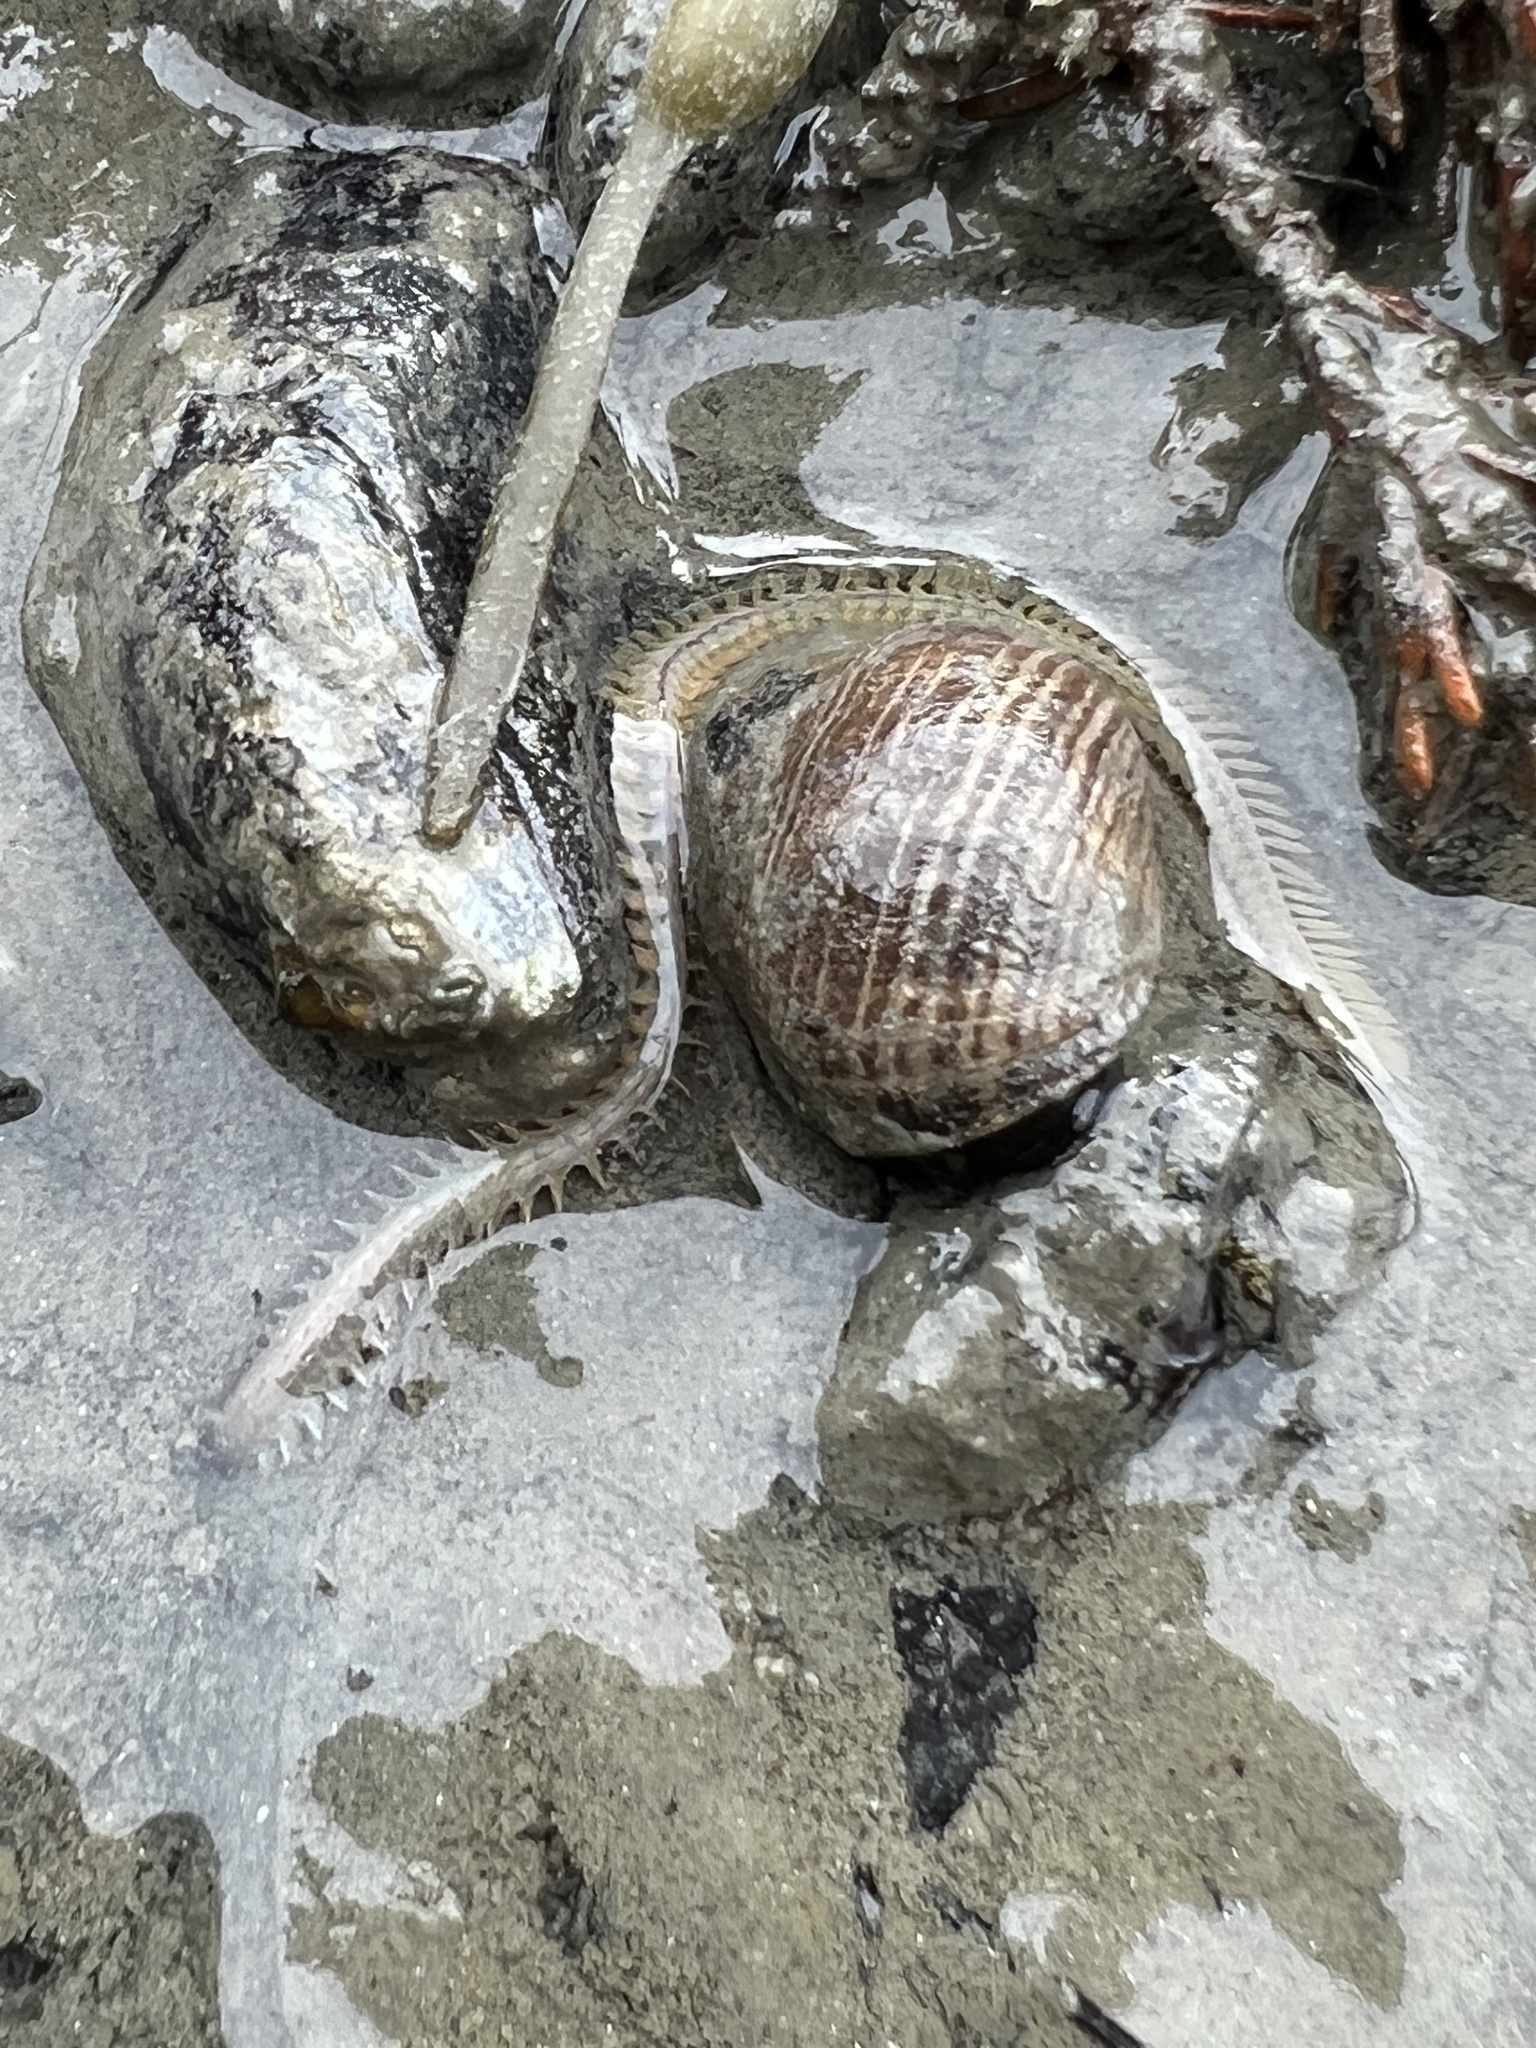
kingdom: Animalia
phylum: Annelida
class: Polychaeta
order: Phyllodocida
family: Nereididae
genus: Alitta
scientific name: Alitta succinea
